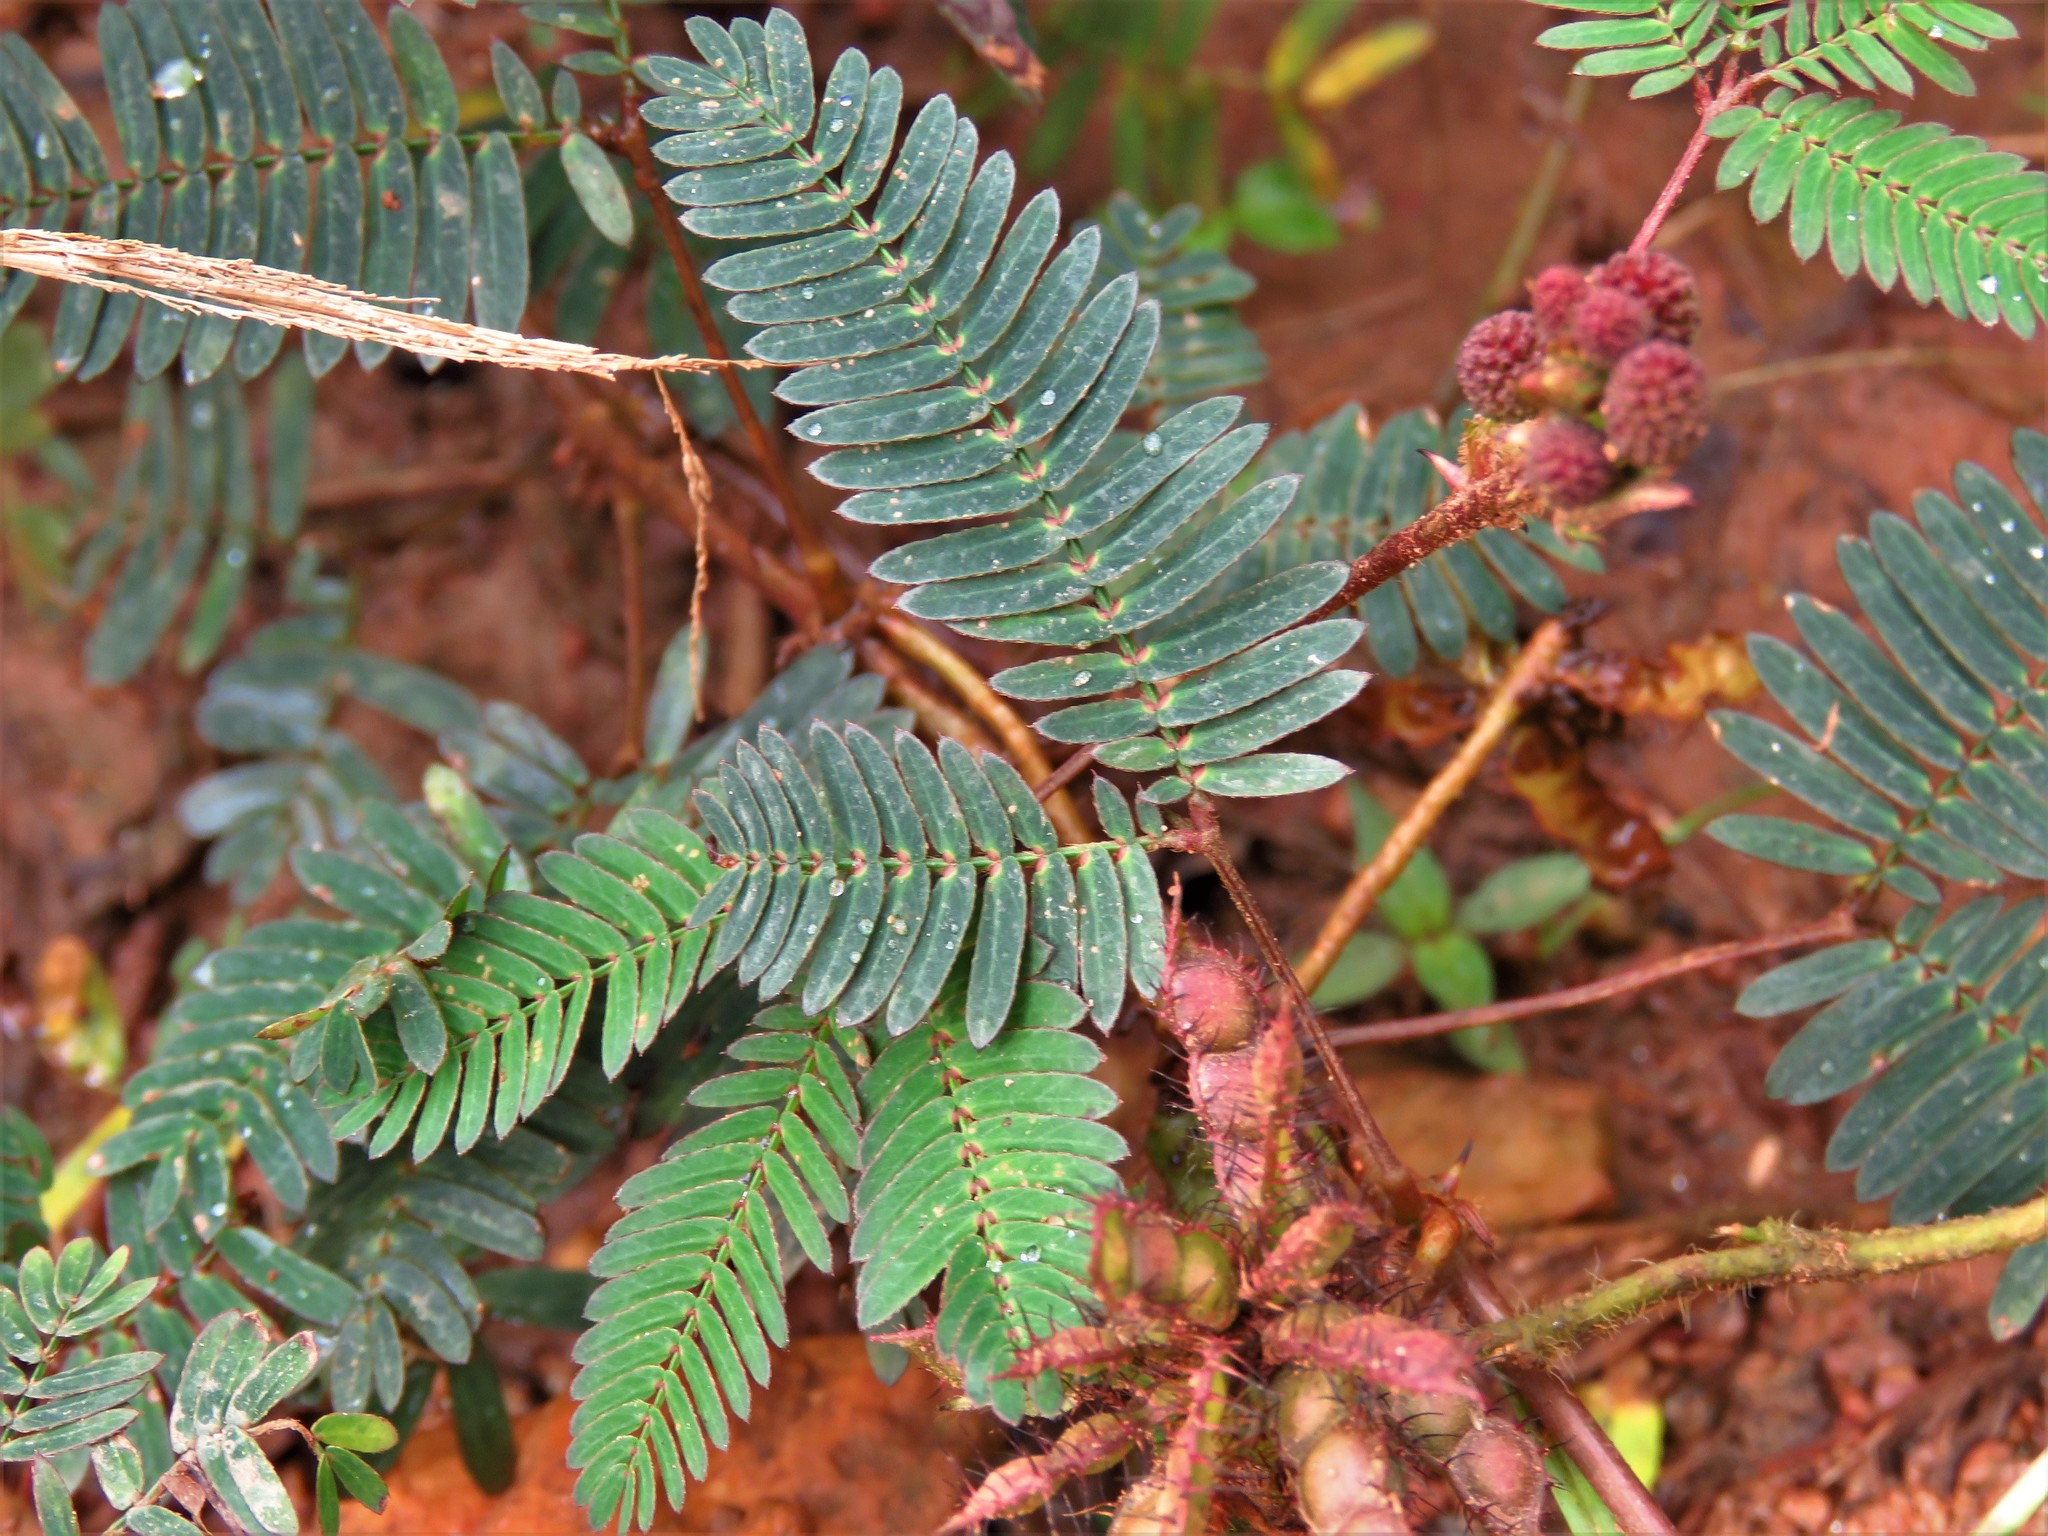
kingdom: Plantae
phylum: Tracheophyta
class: Magnoliopsida
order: Fabales
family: Fabaceae
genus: Mimosa
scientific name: Mimosa pudica
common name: Sensitive plant
